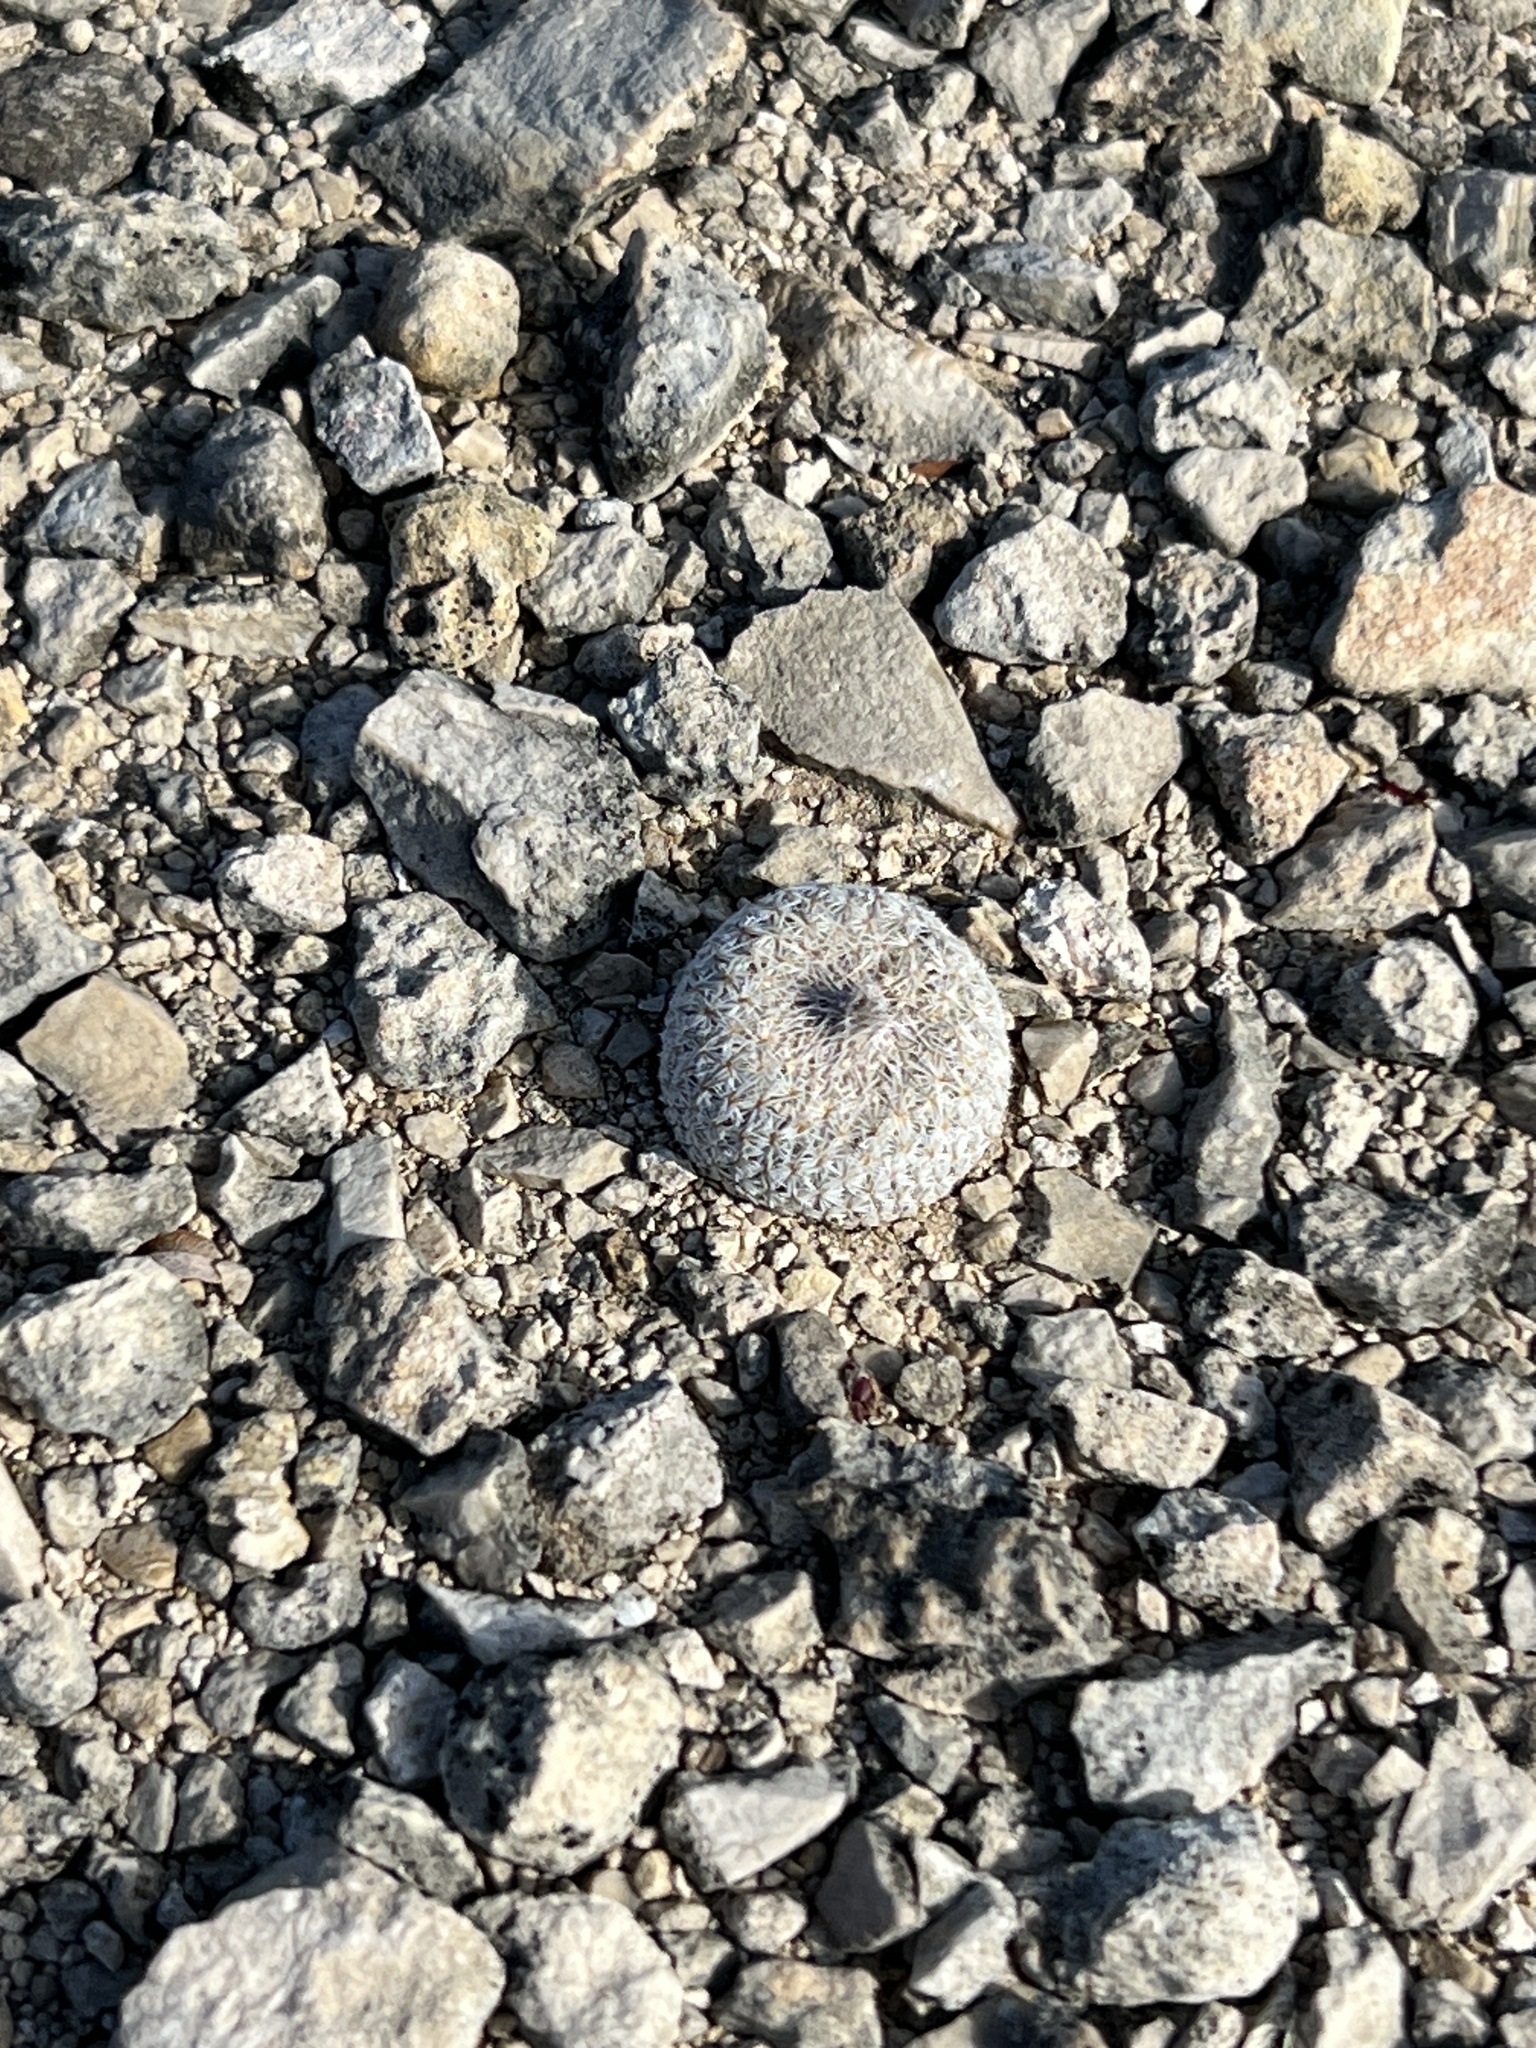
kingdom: Plantae
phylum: Tracheophyta
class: Magnoliopsida
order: Caryophyllales
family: Cactaceae
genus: Epithelantha
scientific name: Epithelantha micromeris
